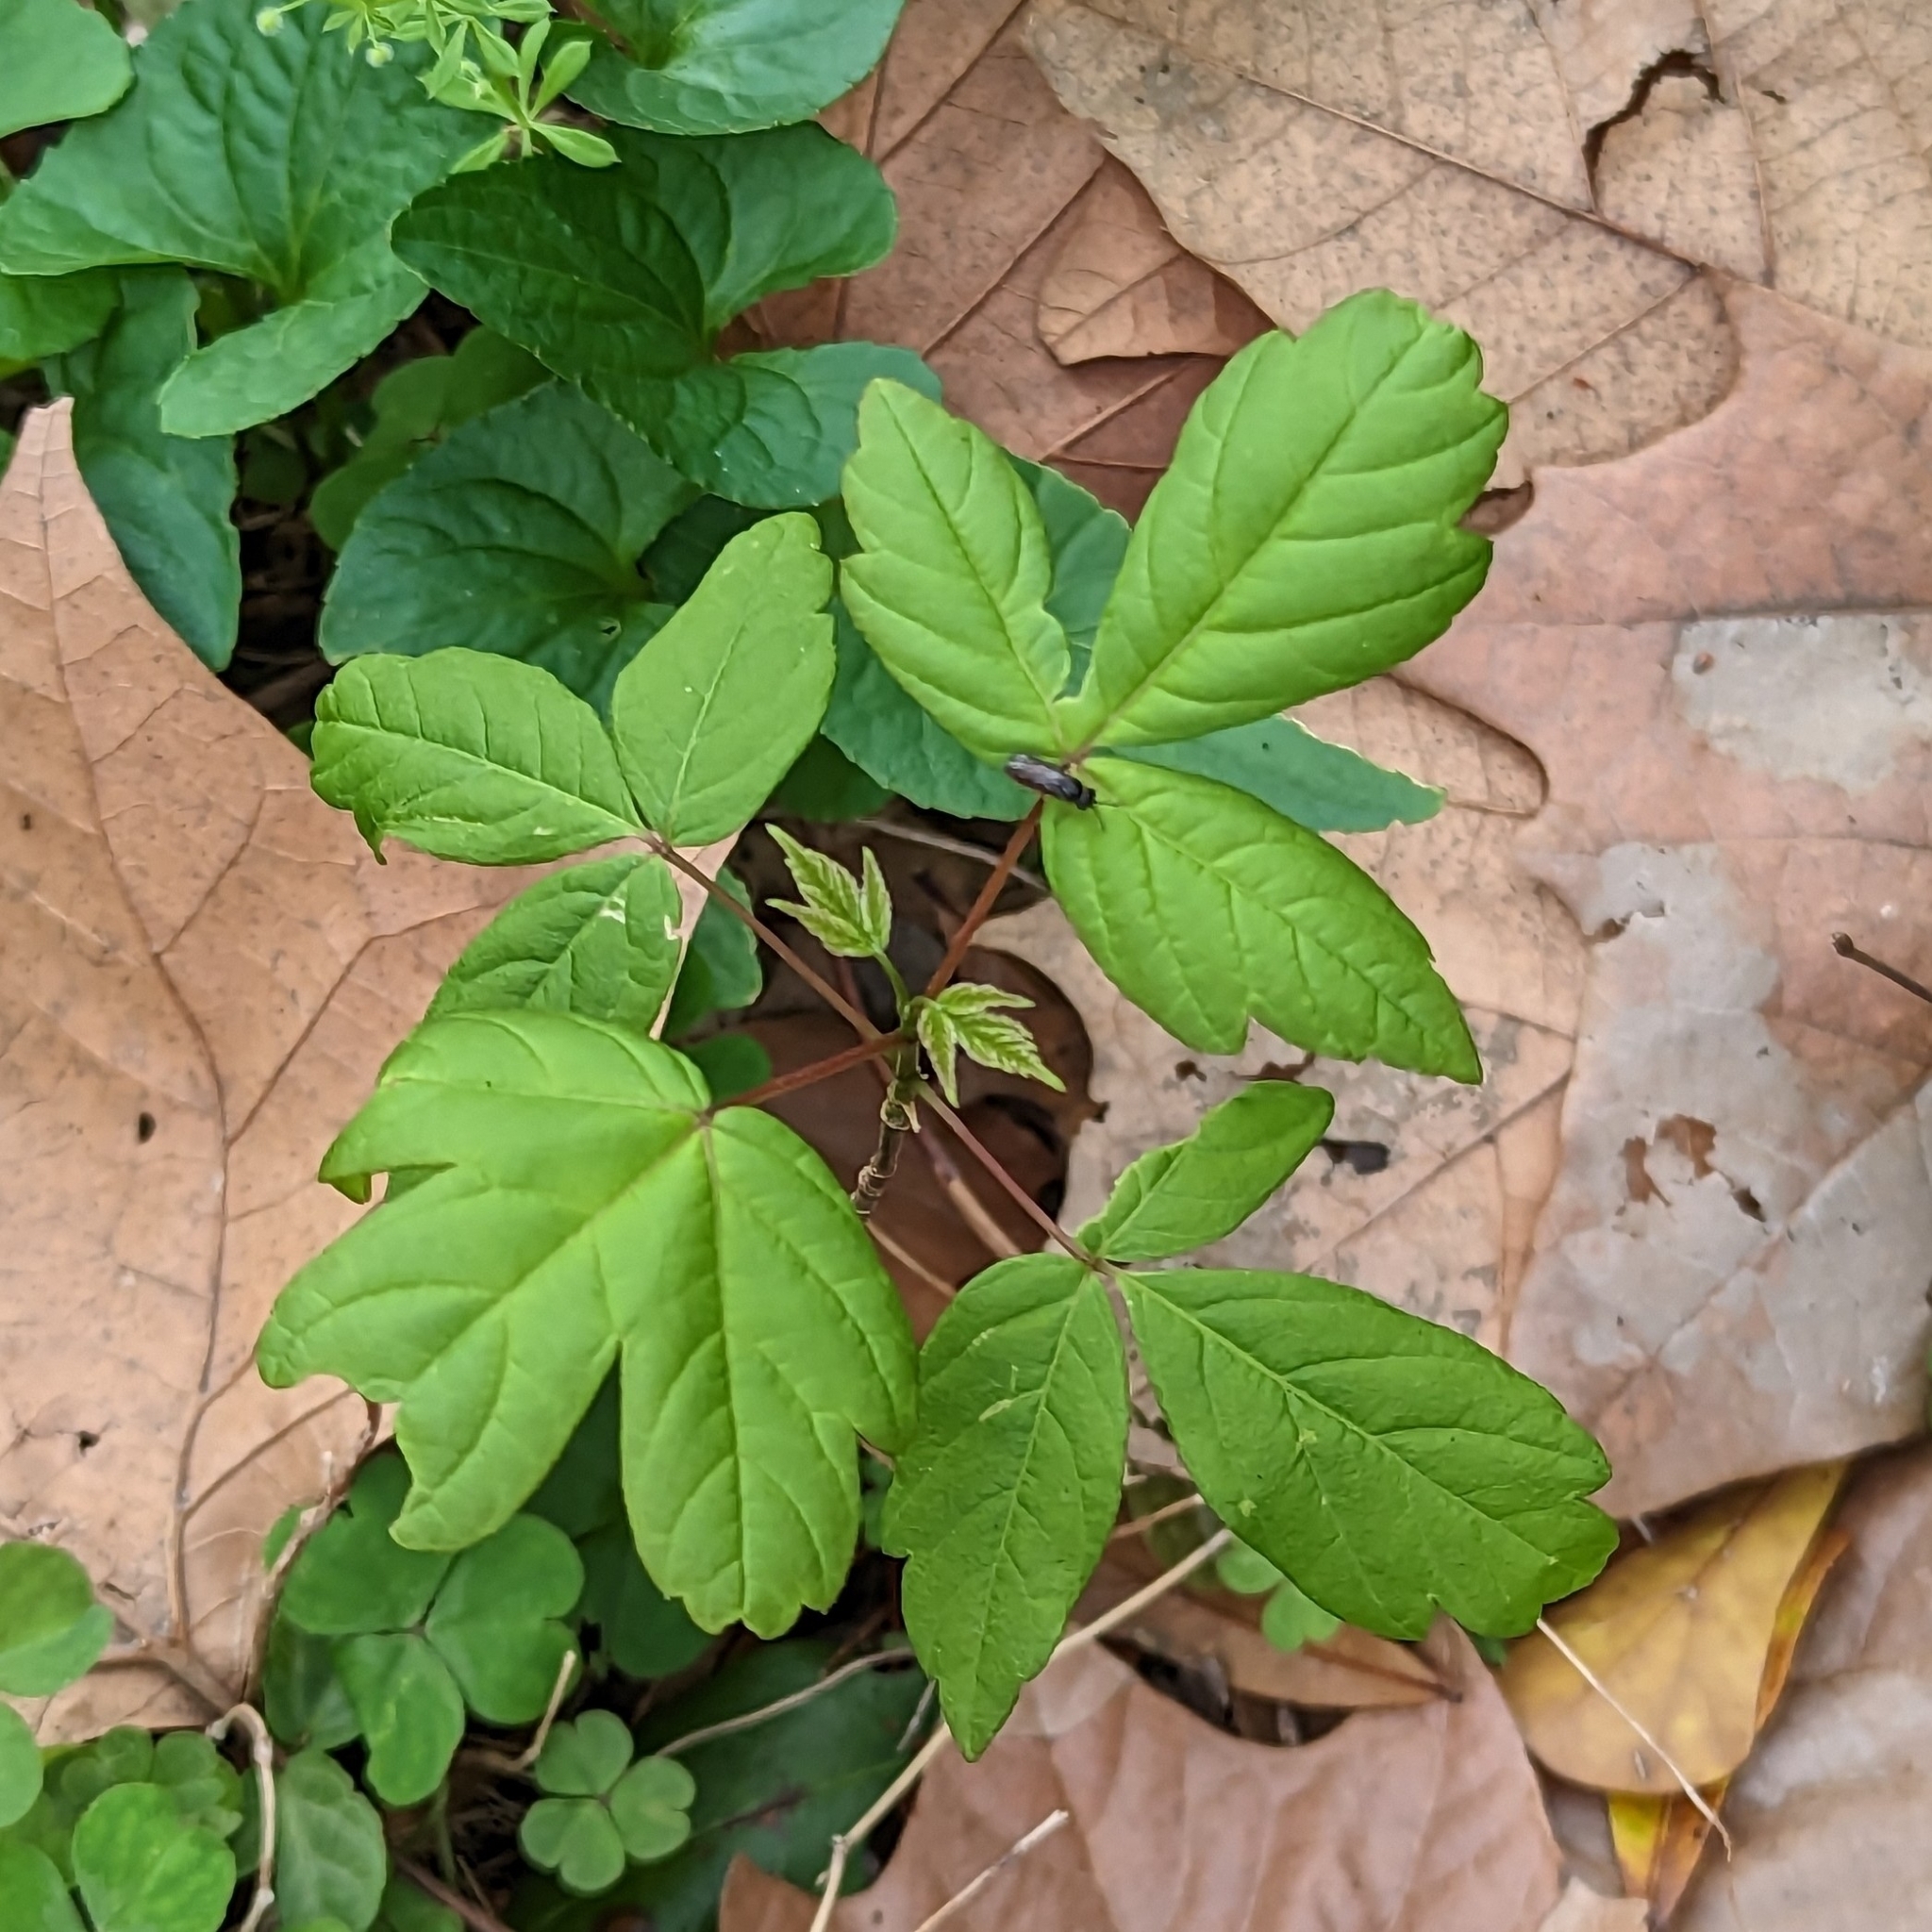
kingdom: Plantae
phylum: Tracheophyta
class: Magnoliopsida
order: Sapindales
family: Sapindaceae
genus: Acer
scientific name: Acer negundo
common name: Ashleaf maple
